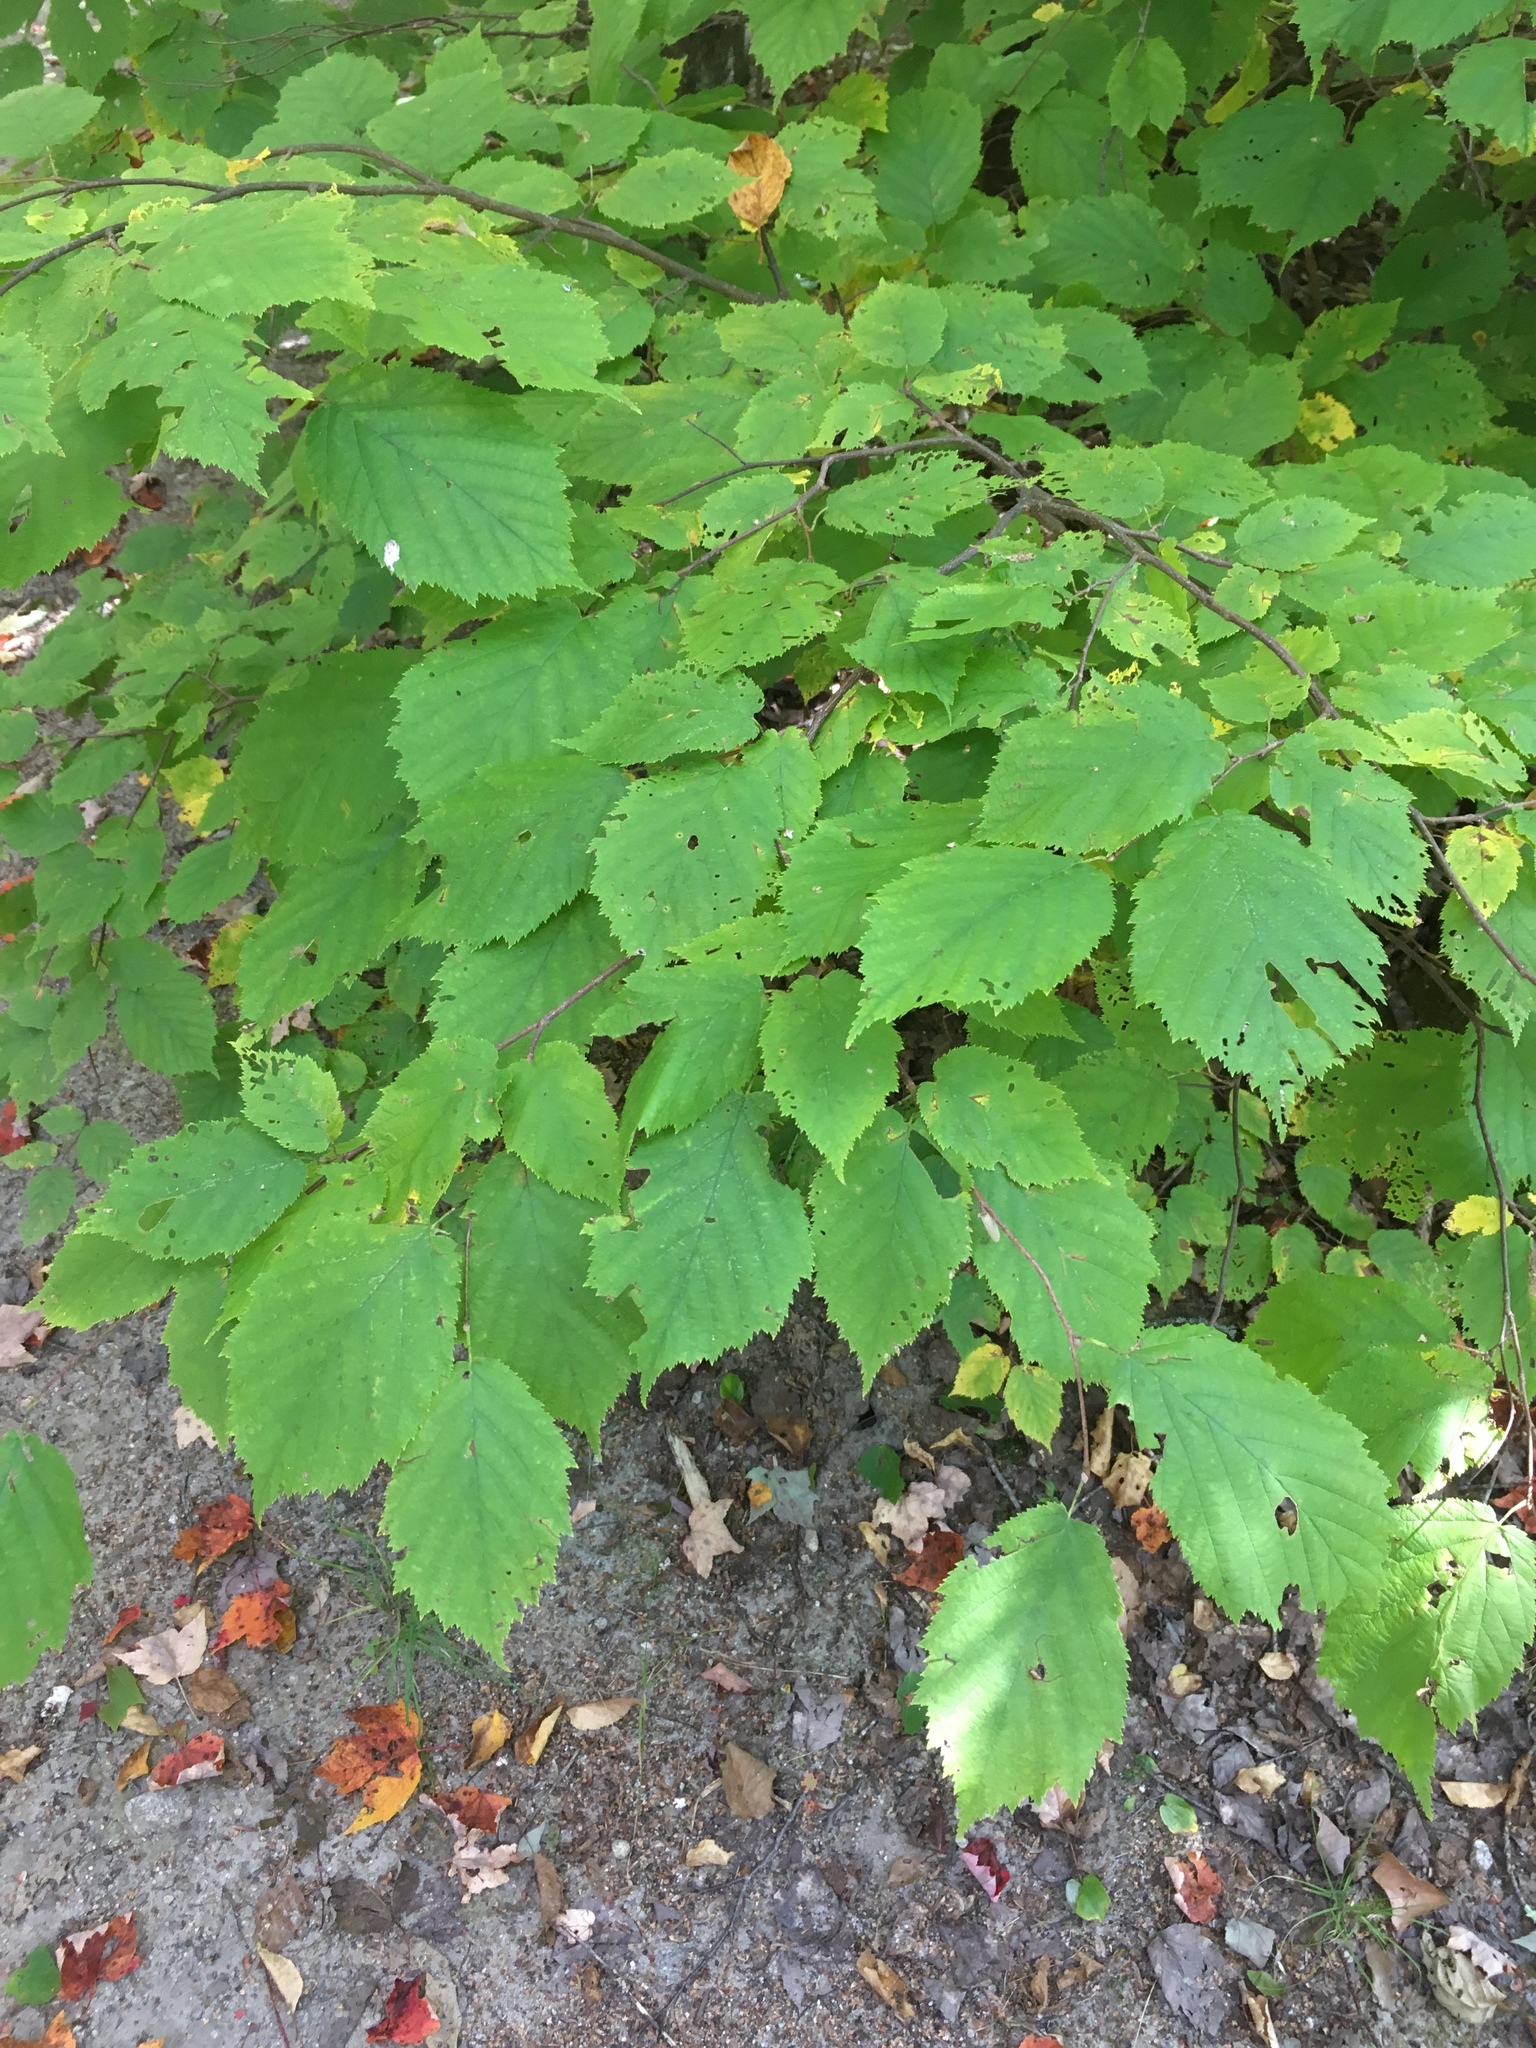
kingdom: Plantae
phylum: Tracheophyta
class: Magnoliopsida
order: Fagales
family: Betulaceae
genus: Corylus
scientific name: Corylus cornuta
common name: Beaked hazel
